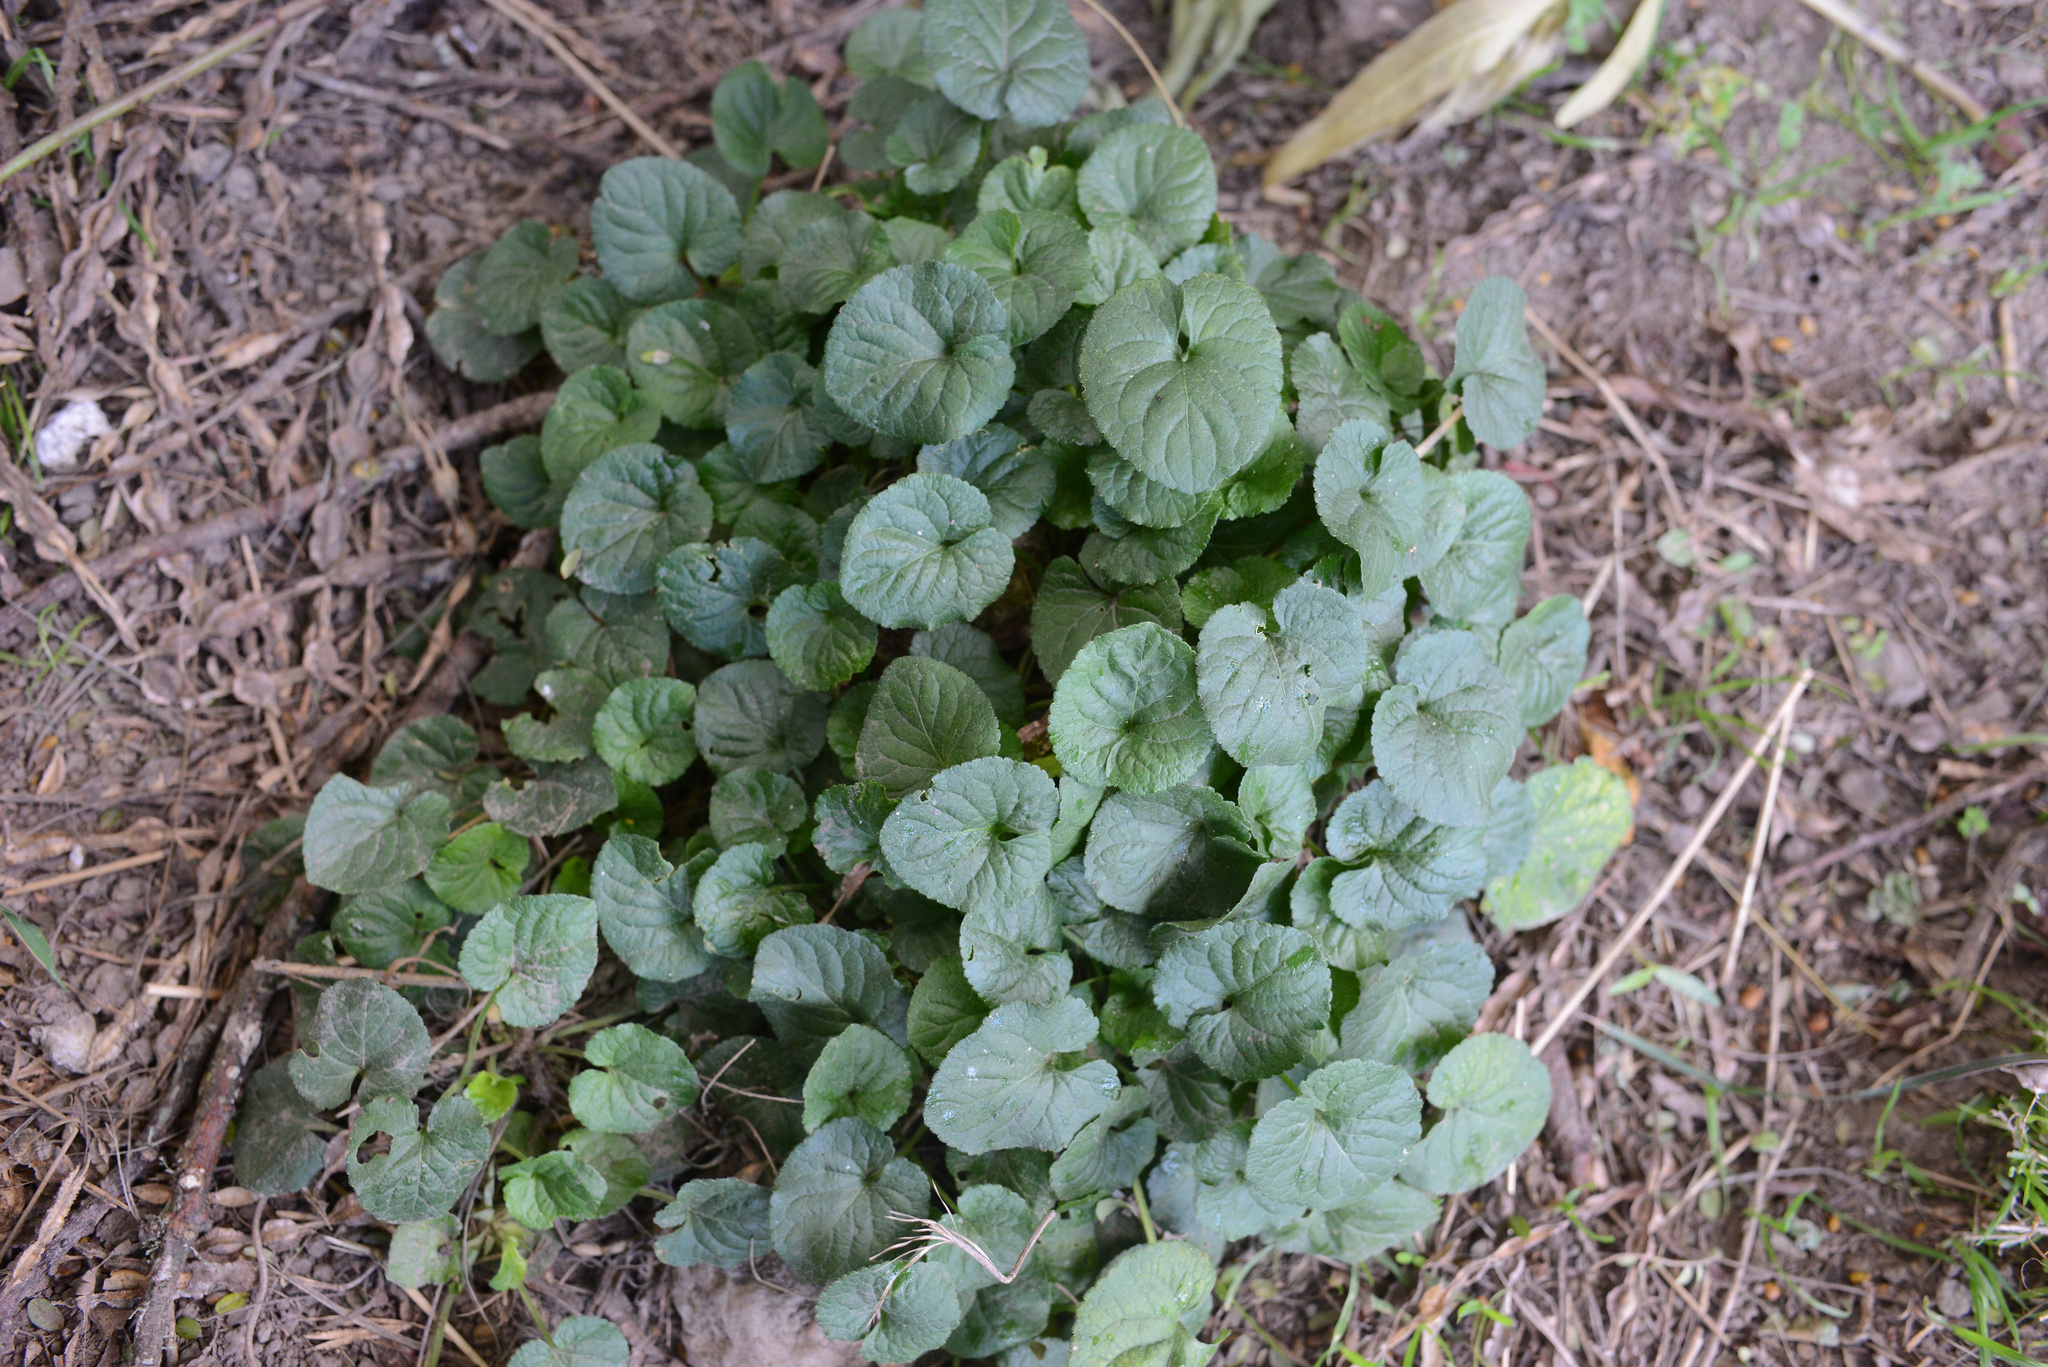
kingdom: Plantae
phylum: Tracheophyta
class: Magnoliopsida
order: Malpighiales
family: Violaceae
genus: Viola
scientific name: Viola odorata
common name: Sweet violet
